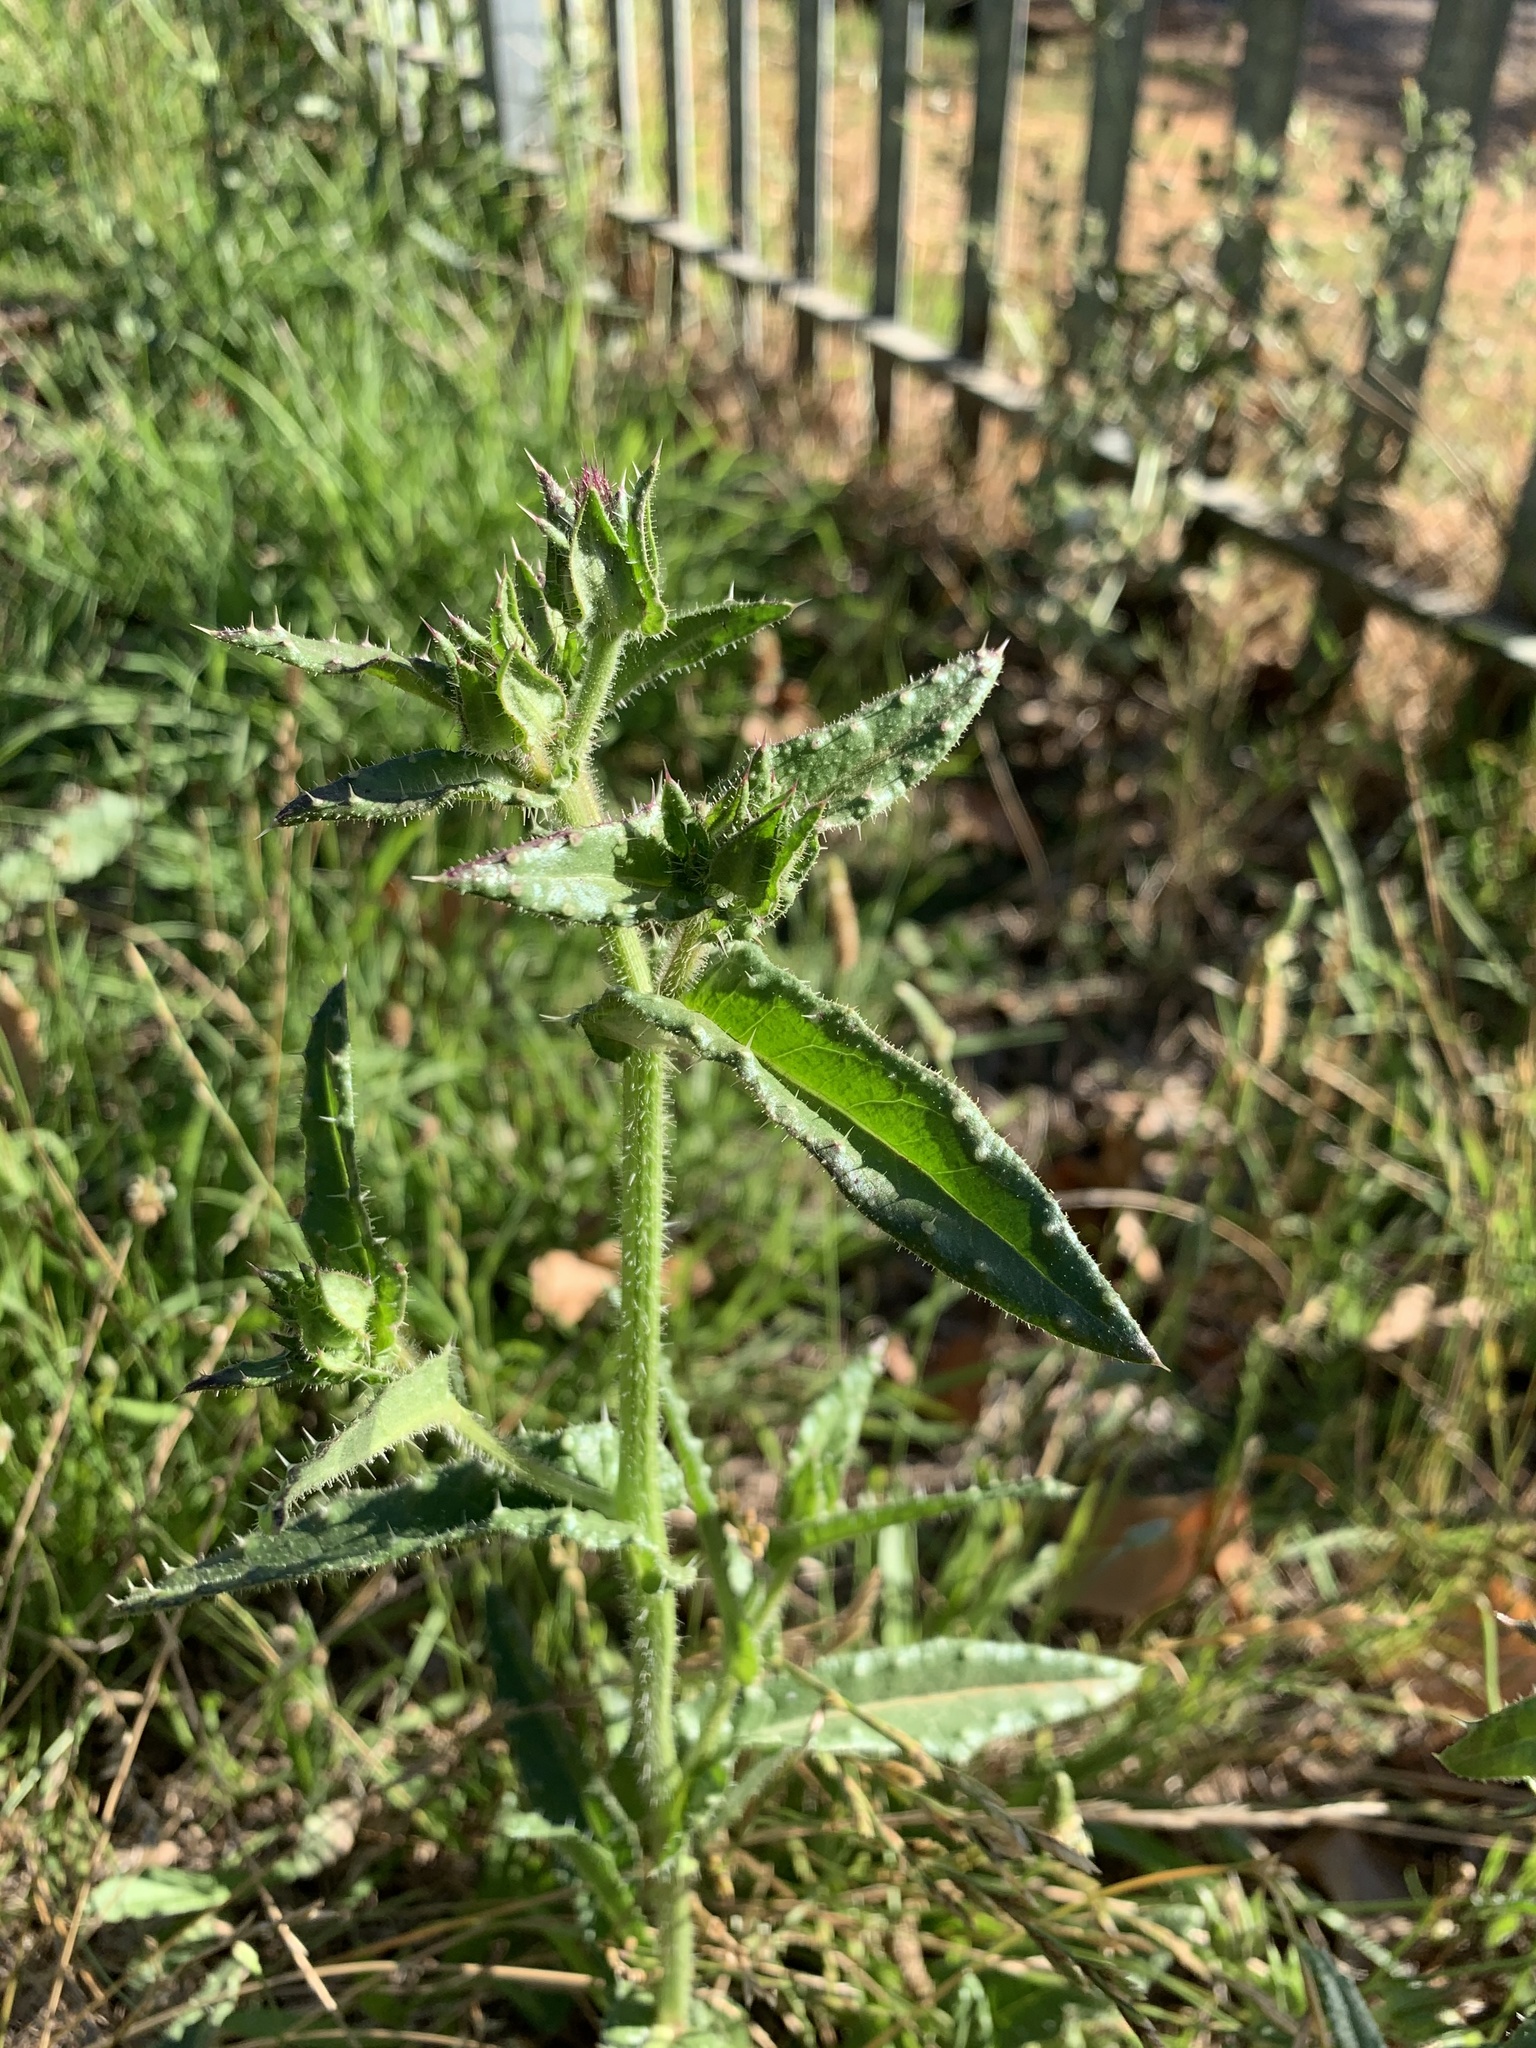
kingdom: Plantae
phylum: Tracheophyta
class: Magnoliopsida
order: Asterales
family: Asteraceae
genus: Helminthotheca
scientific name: Helminthotheca echioides
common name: Ox-tongue
